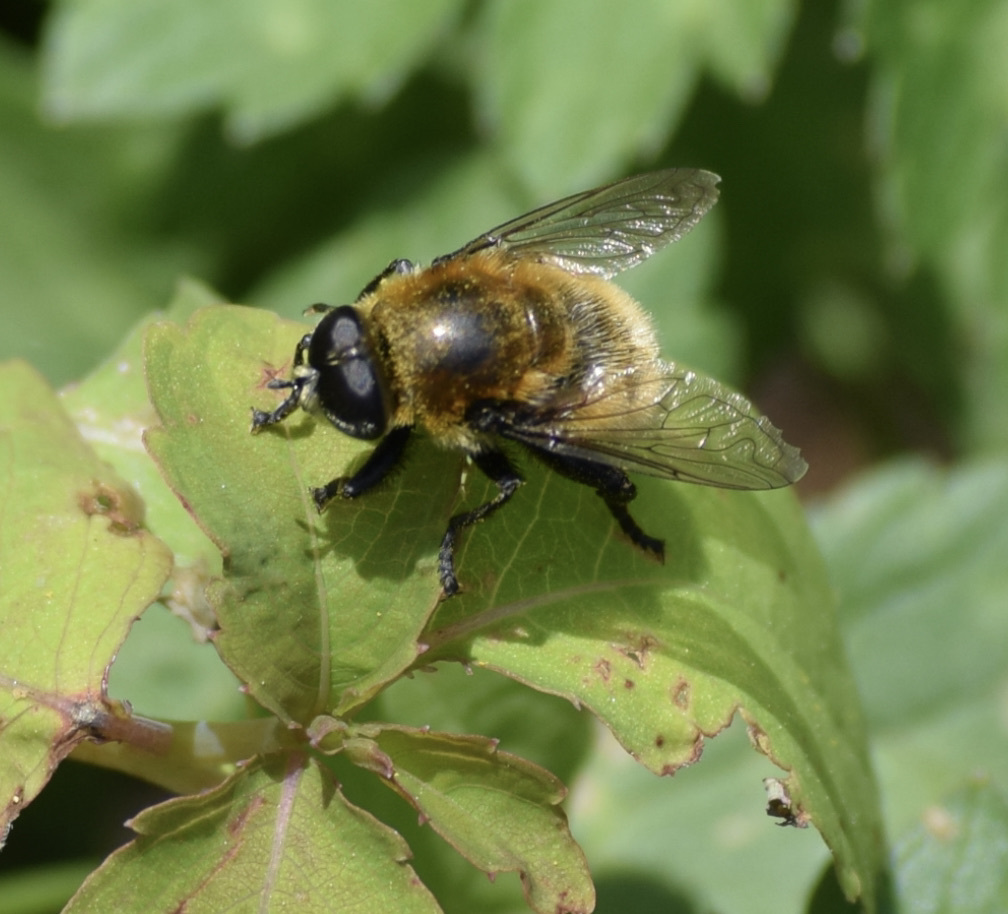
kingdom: Animalia
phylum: Arthropoda
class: Insecta
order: Diptera
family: Syrphidae
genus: Merodon
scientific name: Merodon equestris
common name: Greater bulb-fly
